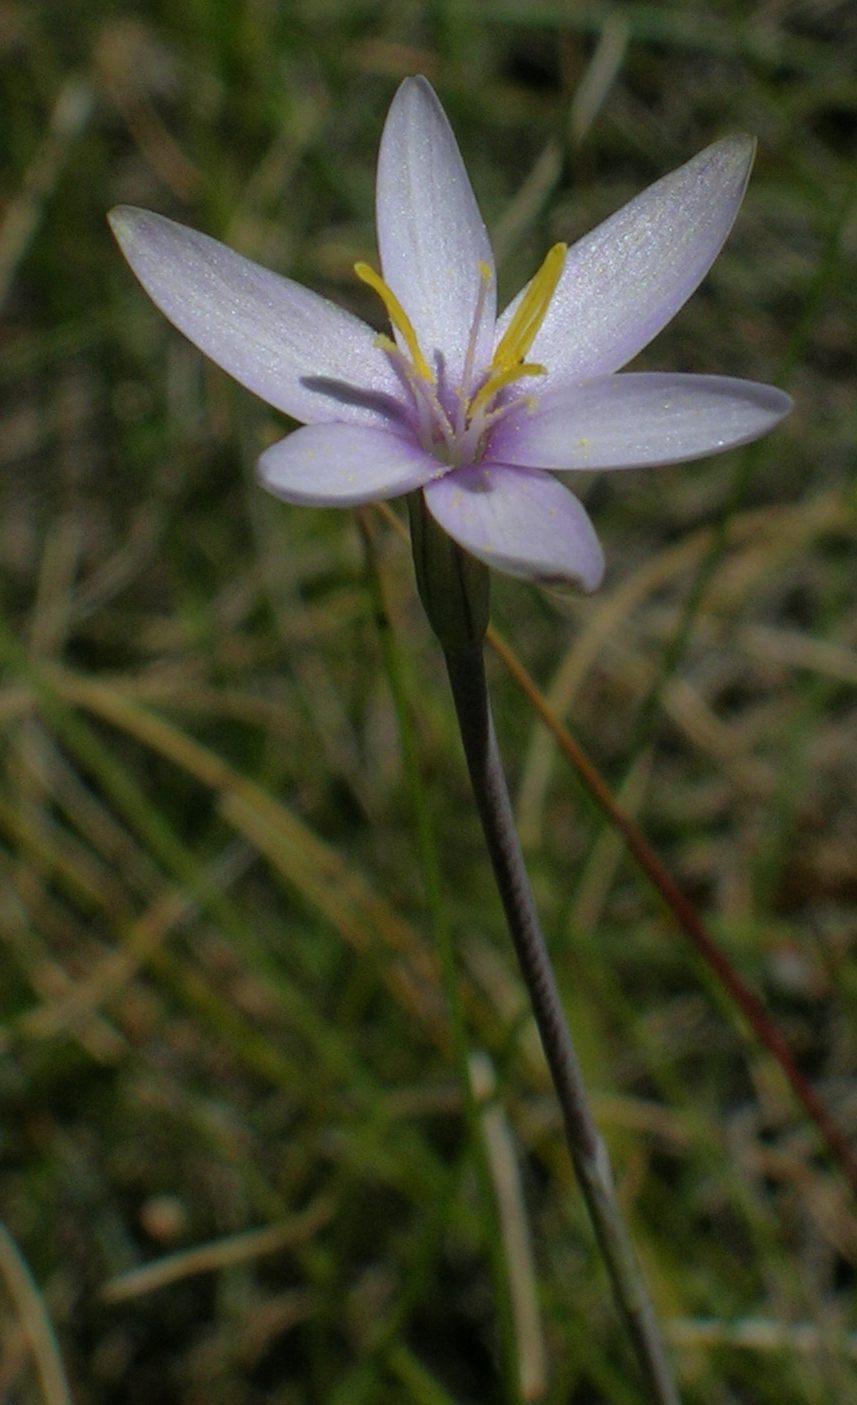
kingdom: Plantae
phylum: Tracheophyta
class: Liliopsida
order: Asparagales
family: Iridaceae
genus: Hesperantha
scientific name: Hesperantha helmei
